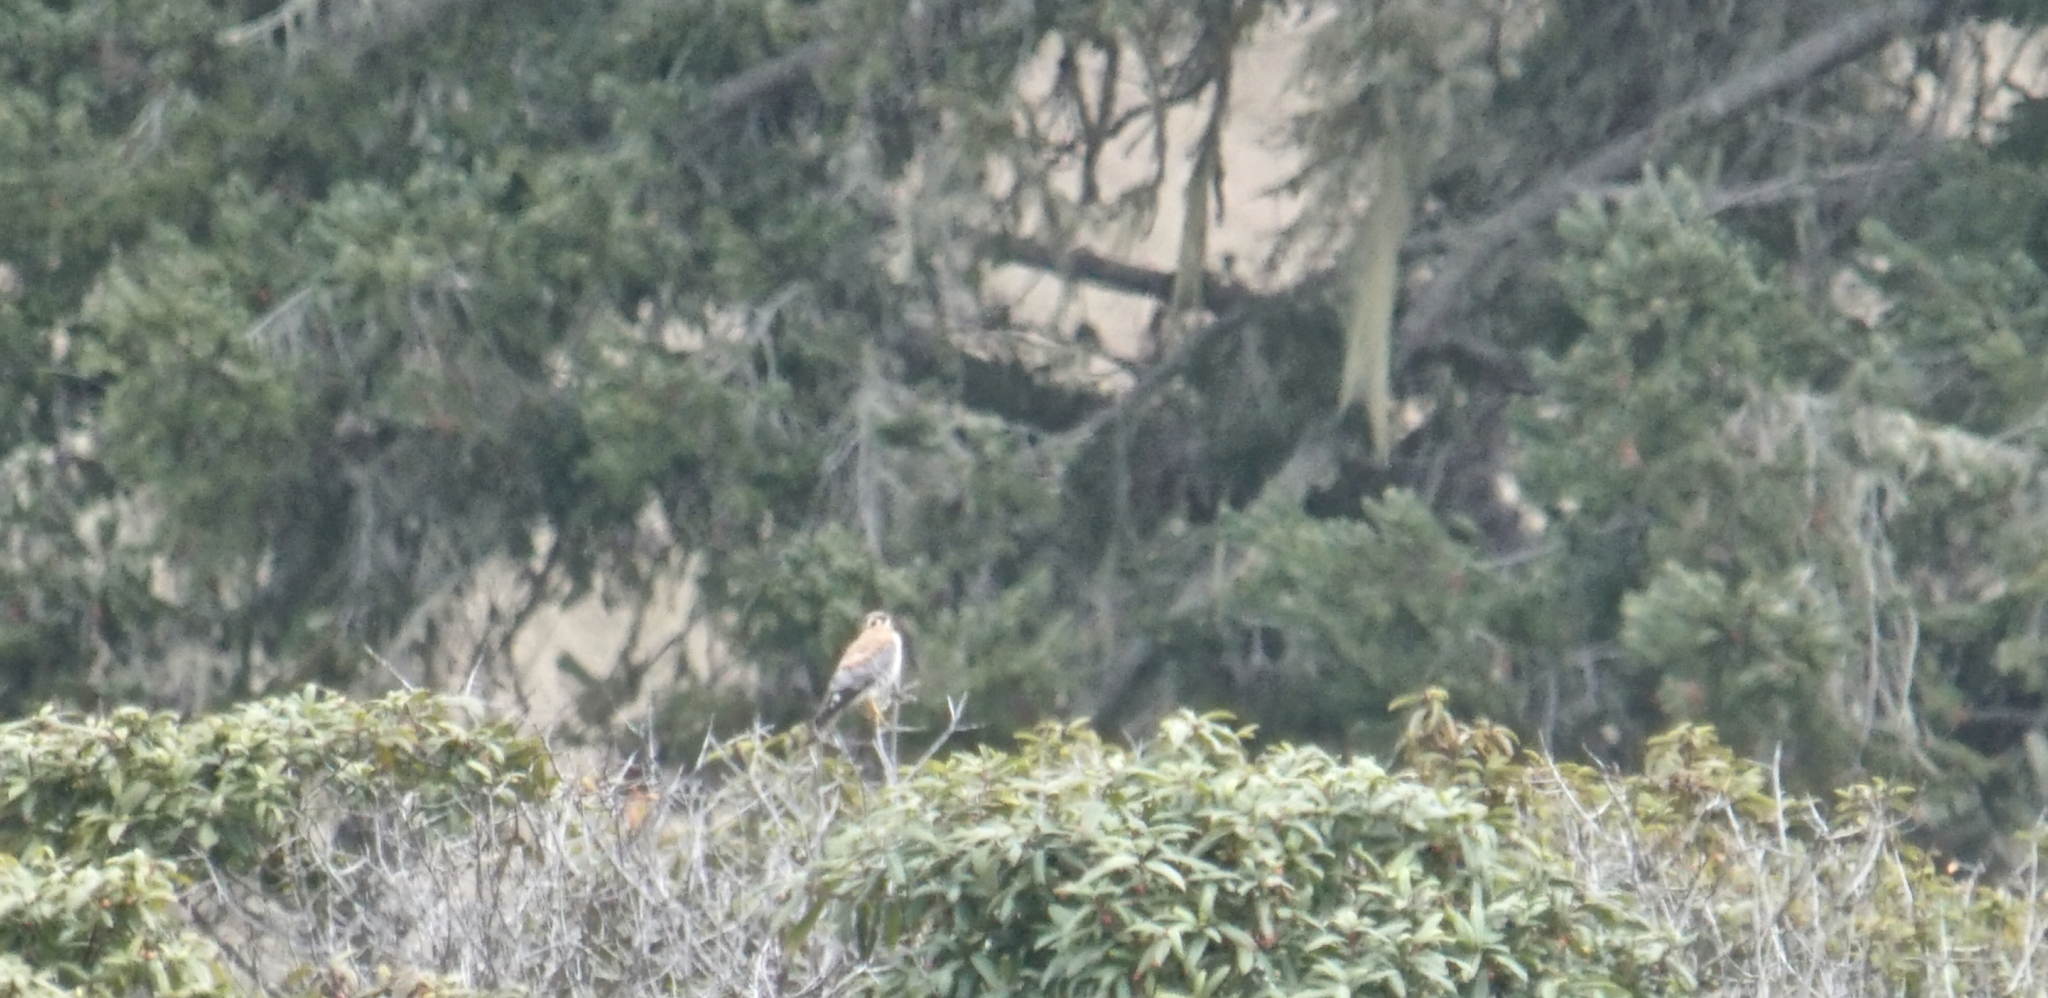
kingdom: Animalia
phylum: Chordata
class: Aves
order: Falconiformes
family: Falconidae
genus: Falco
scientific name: Falco sparverius
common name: American kestrel
